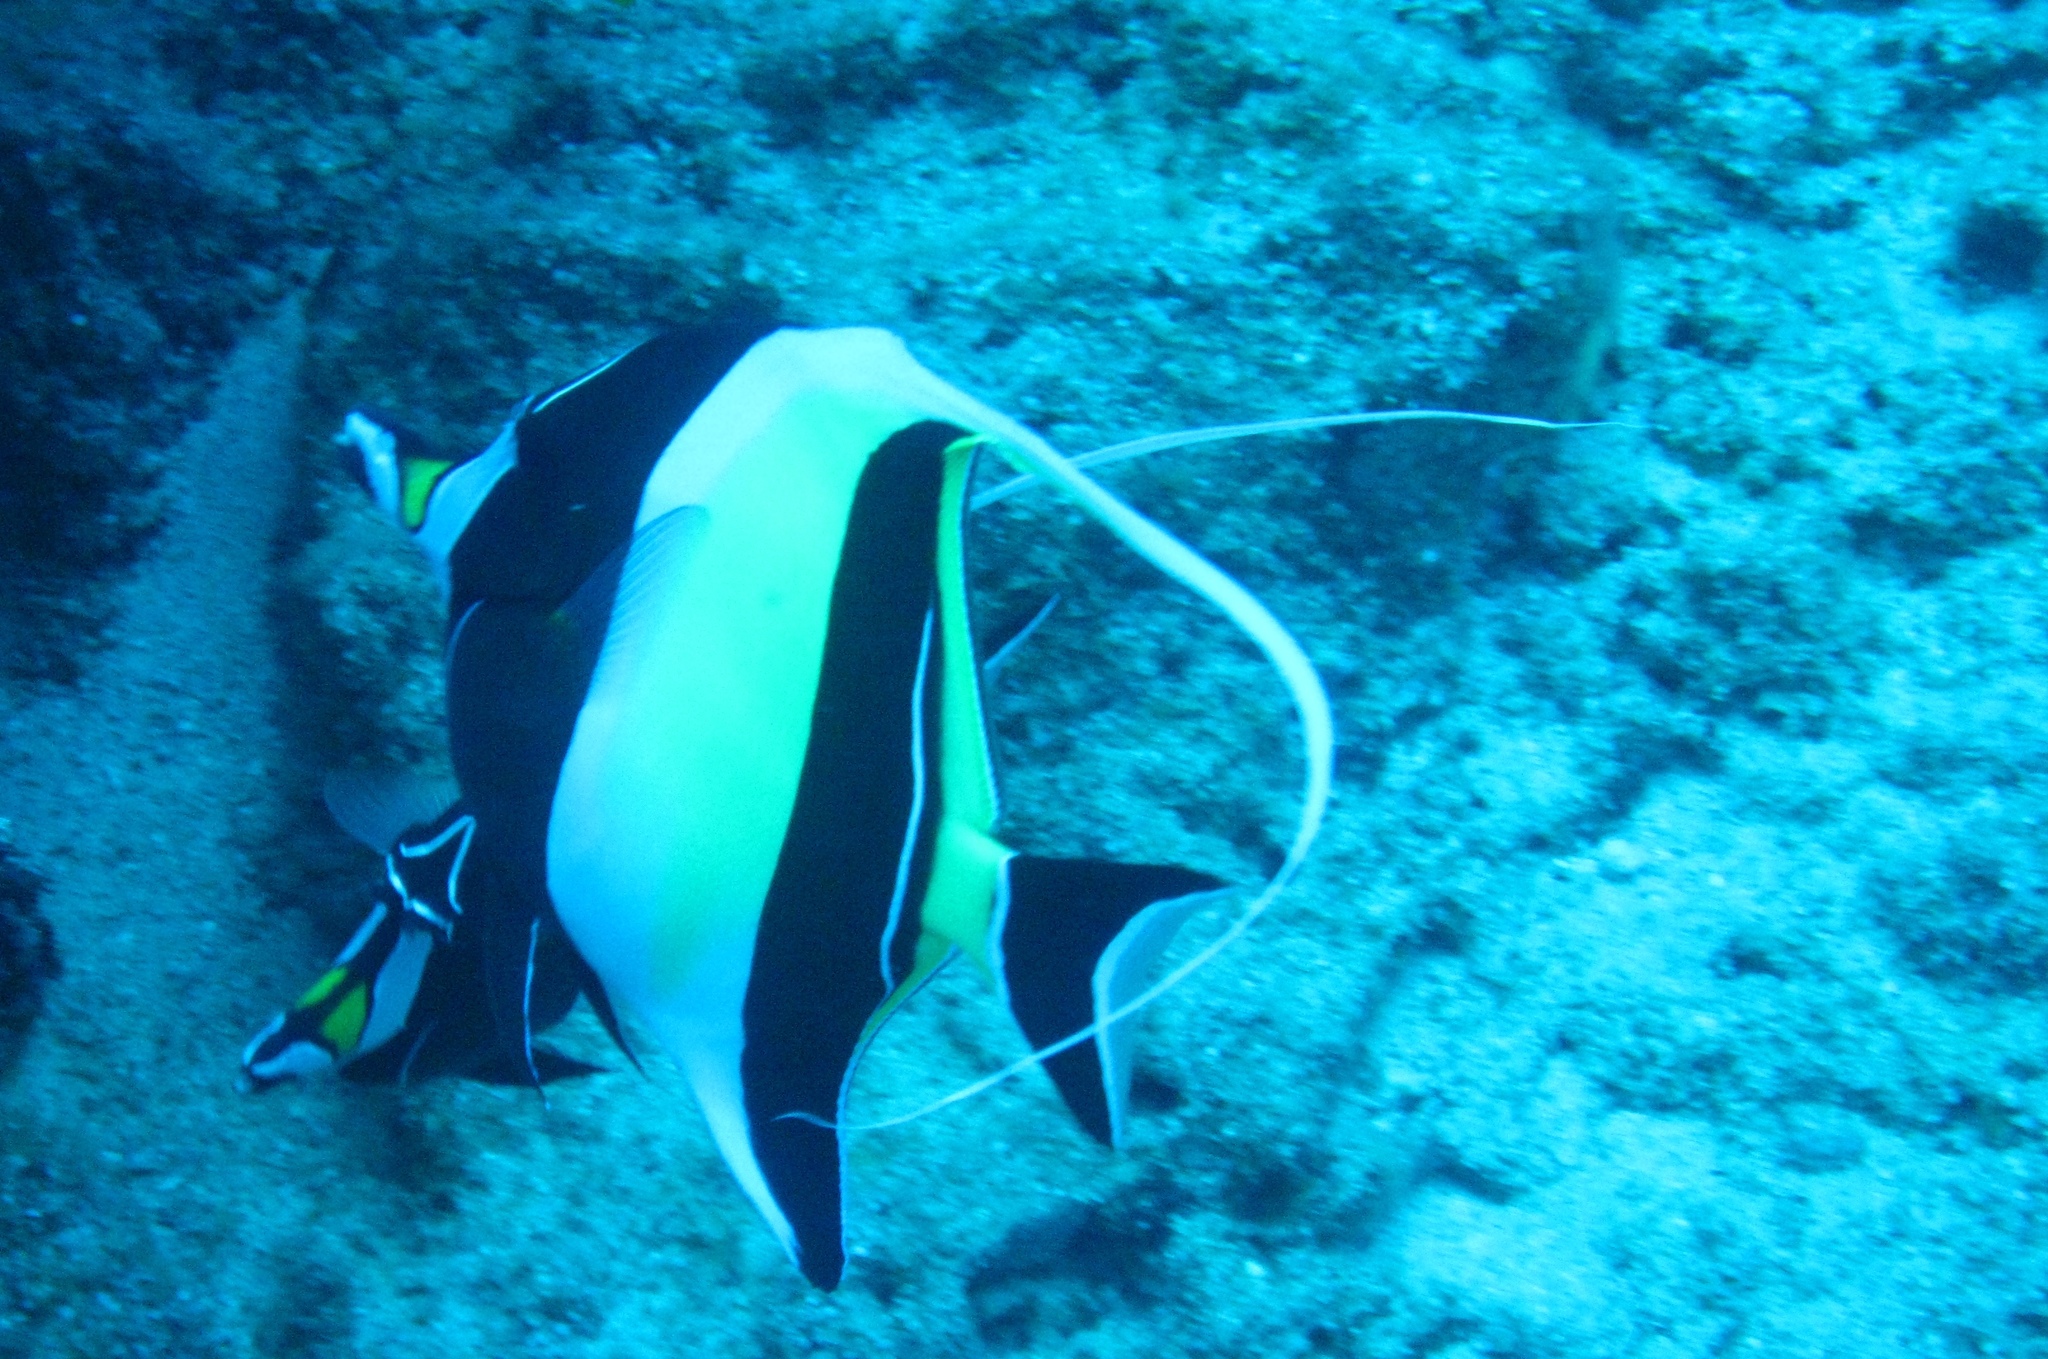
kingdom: Animalia
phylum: Chordata
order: Perciformes
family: Zanclidae
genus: Zanclus
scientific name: Zanclus cornutus
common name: Moorish idol
